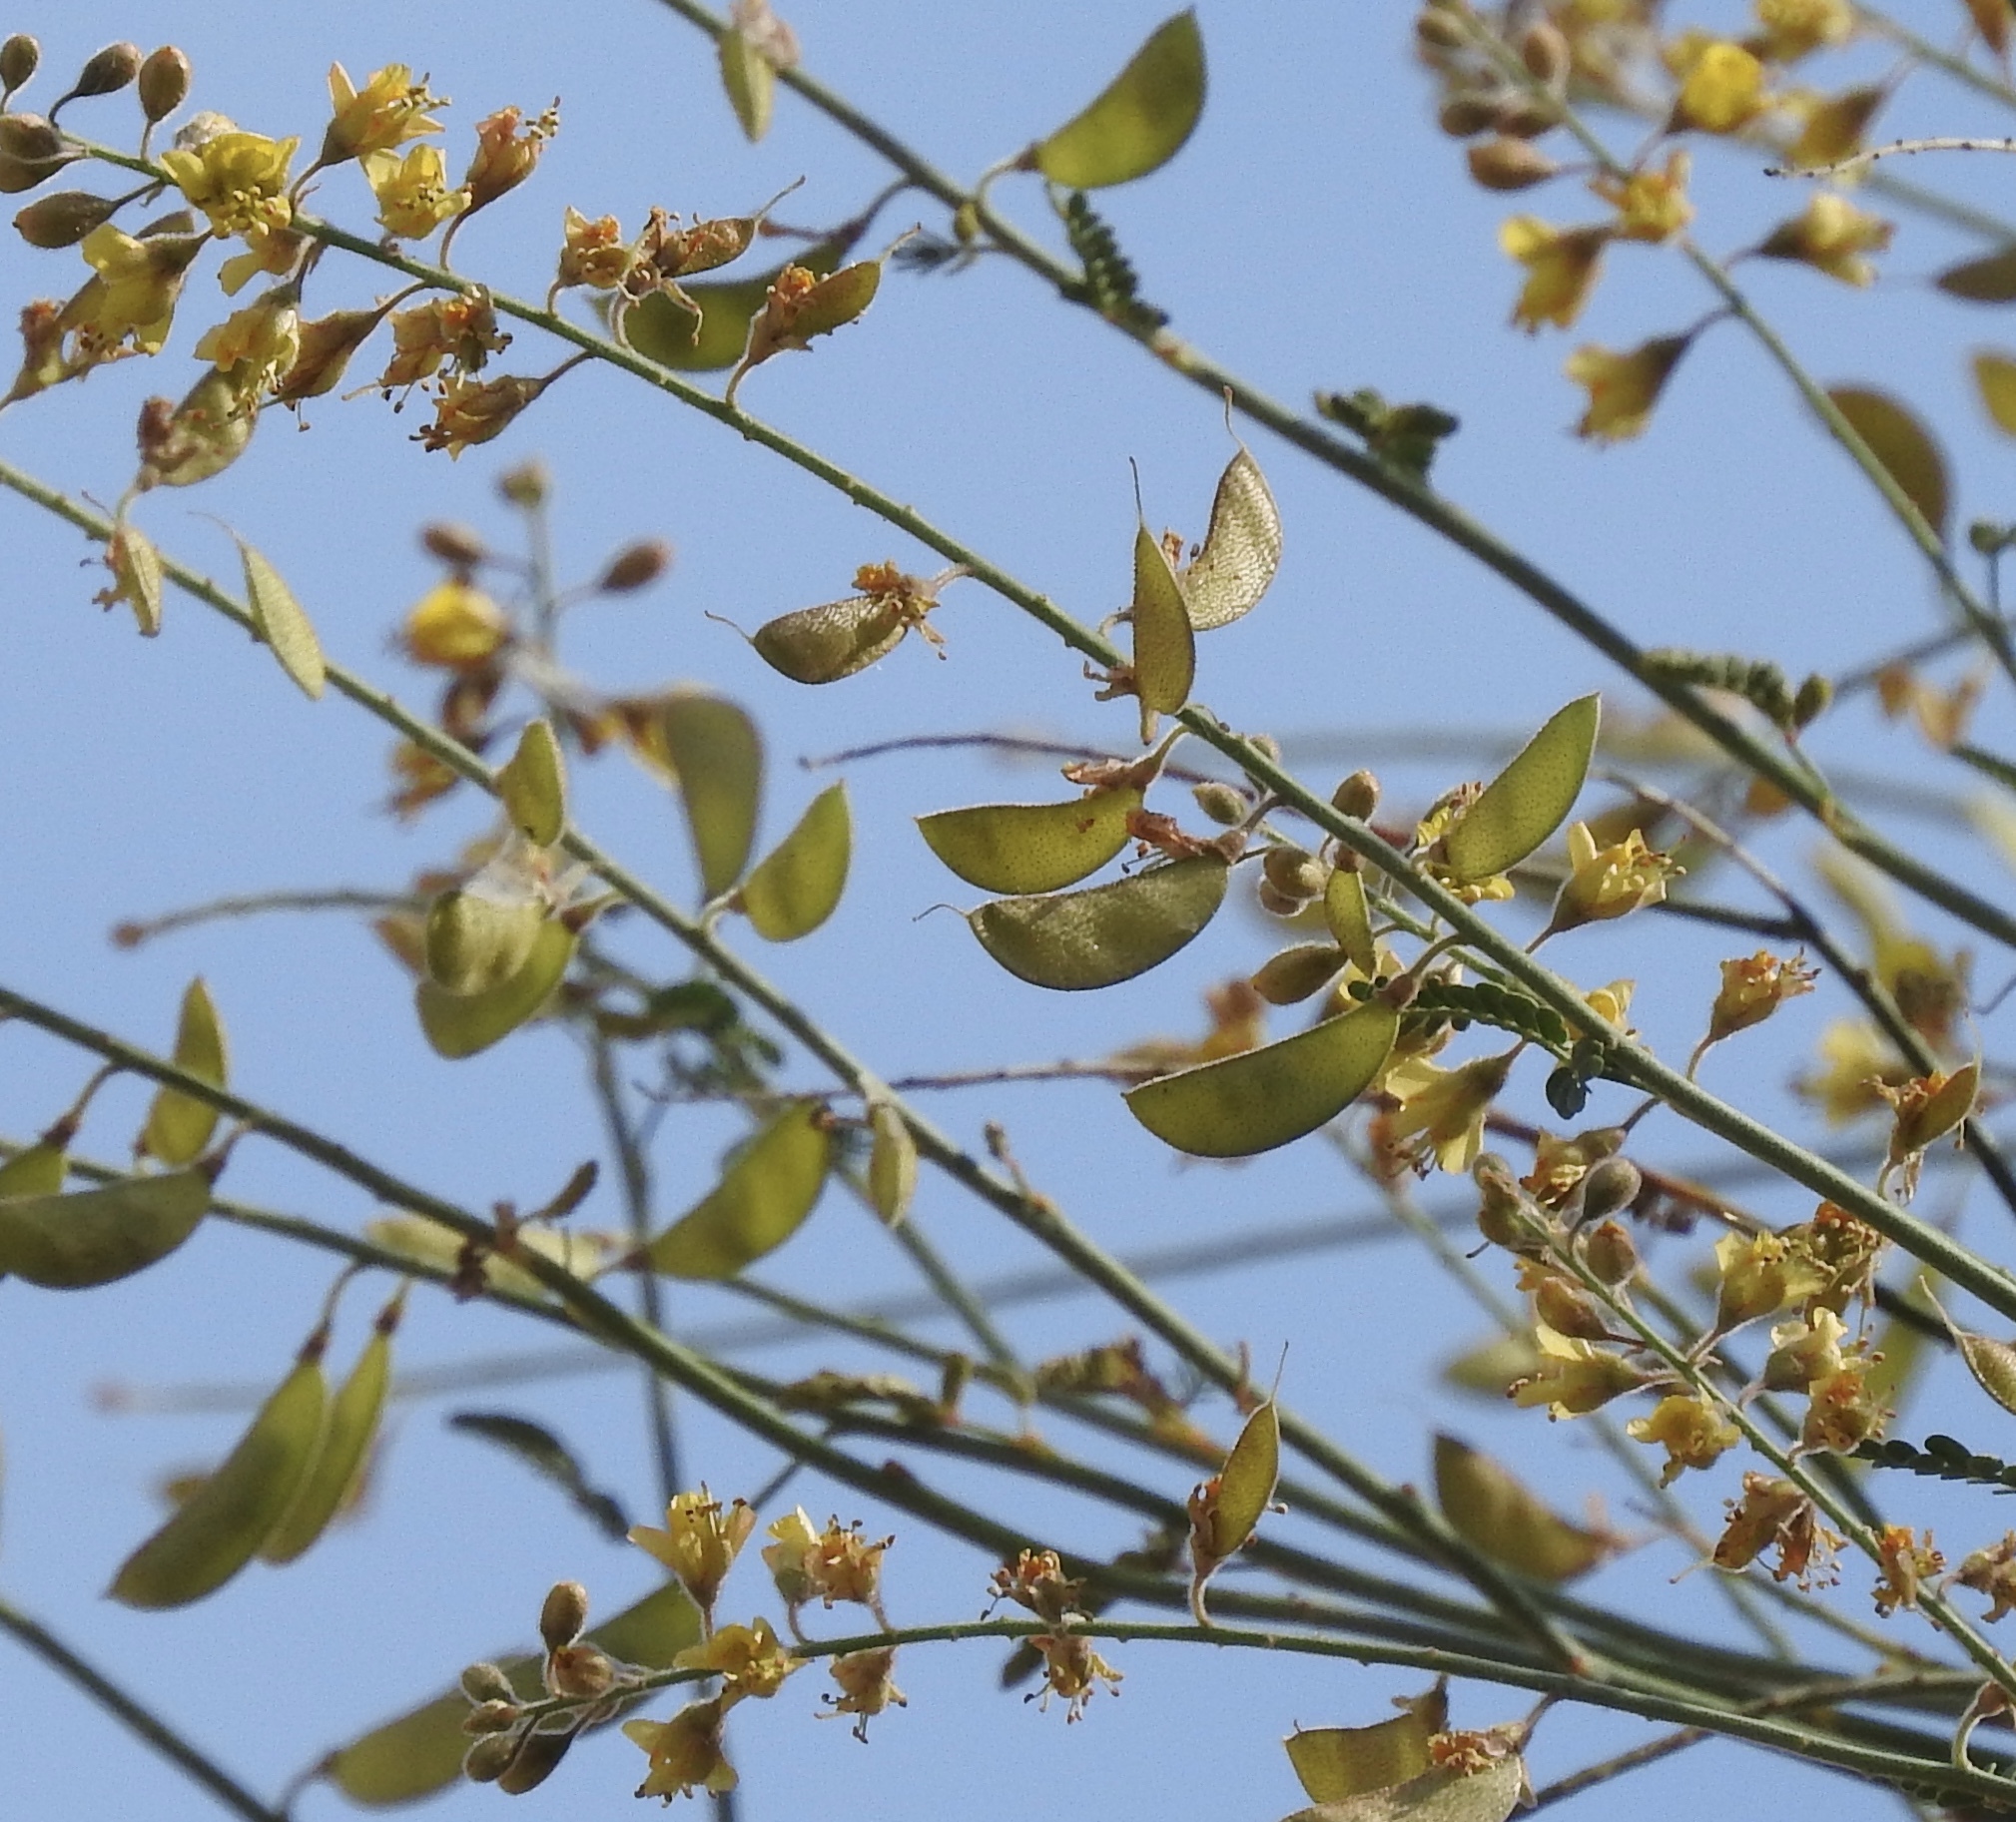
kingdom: Plantae
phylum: Tracheophyta
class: Magnoliopsida
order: Fabales
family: Fabaceae
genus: Hoffmannseggia
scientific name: Hoffmannseggia microphylla
